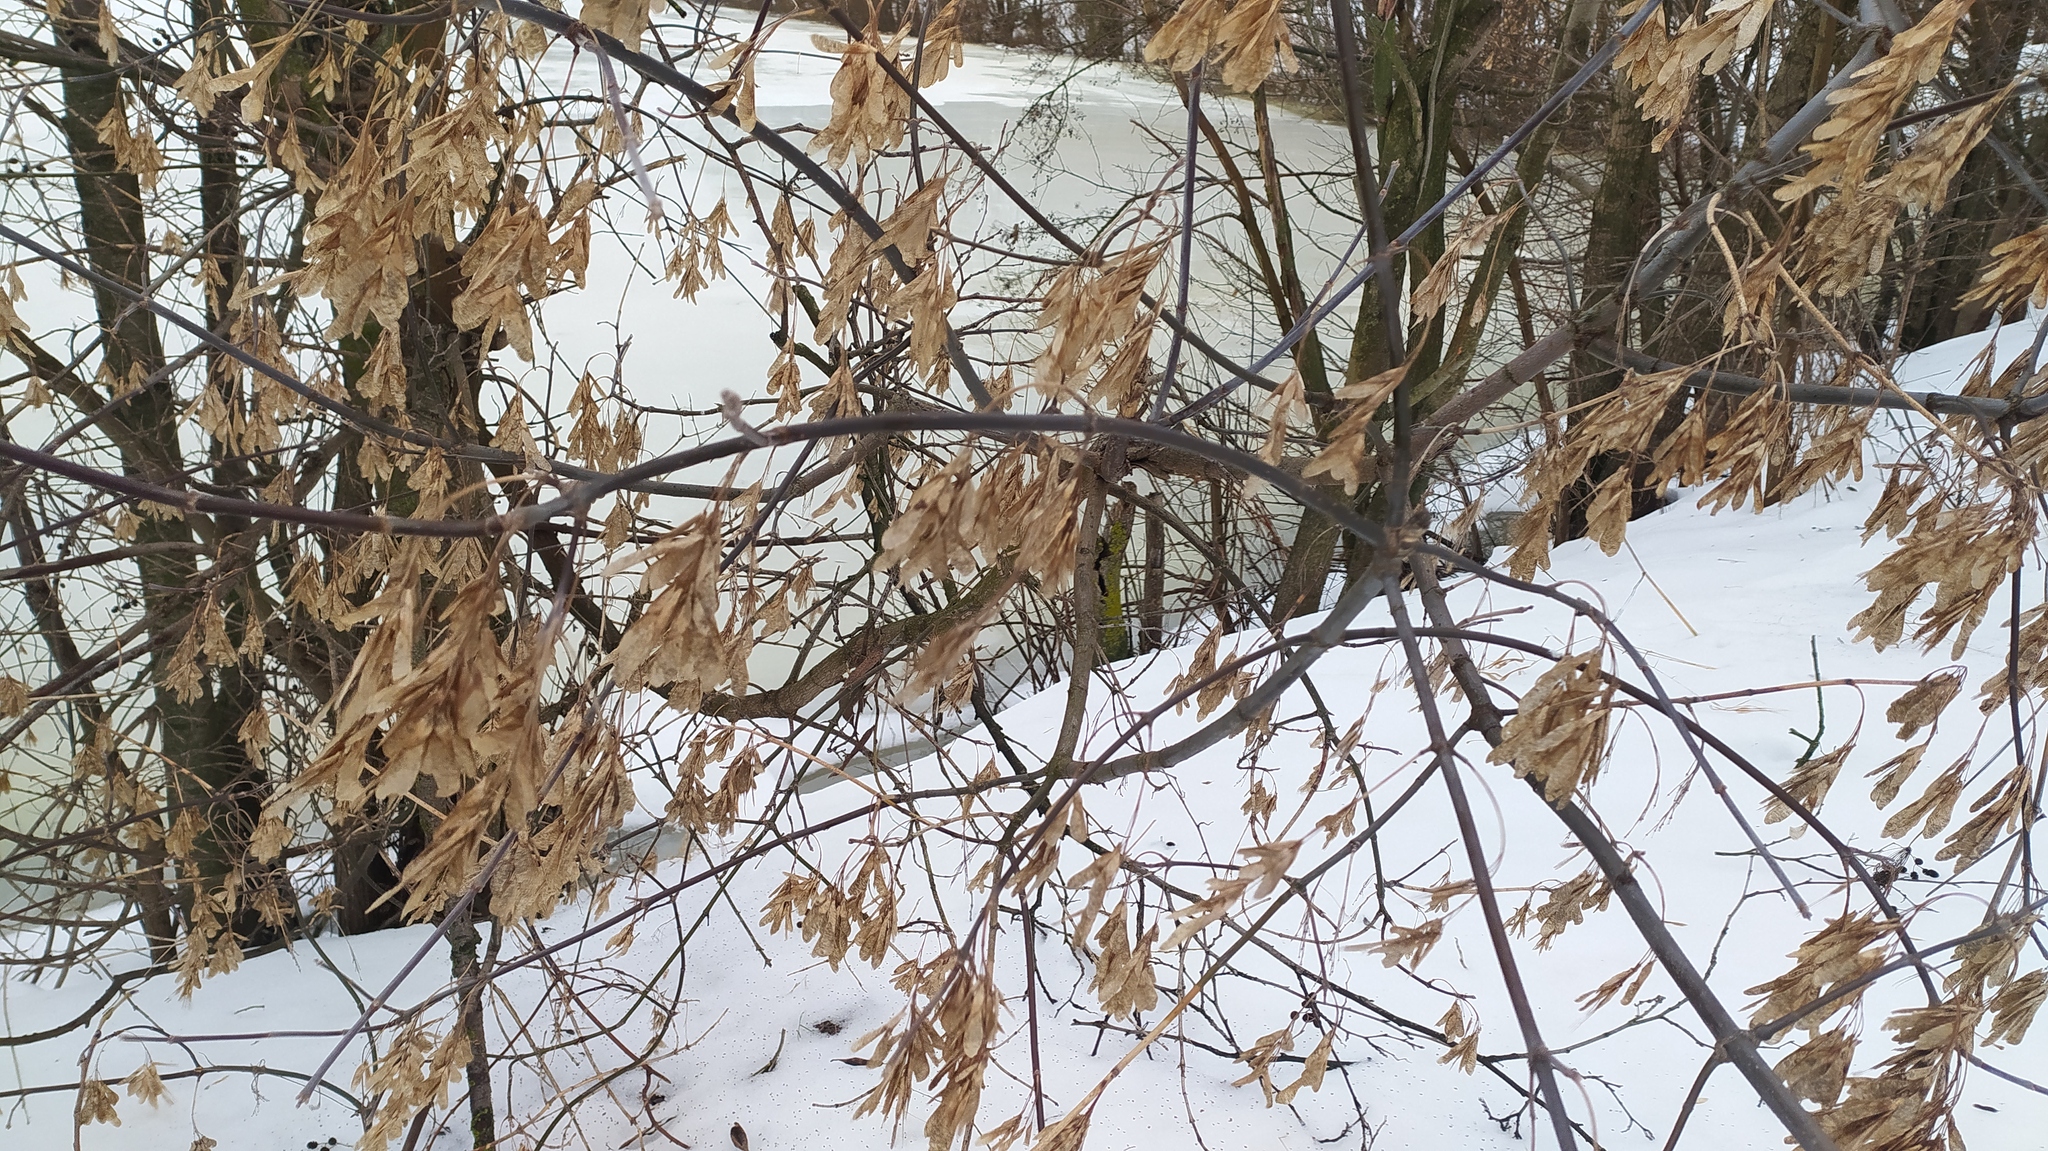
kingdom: Plantae
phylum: Tracheophyta
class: Magnoliopsida
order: Sapindales
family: Sapindaceae
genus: Acer
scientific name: Acer negundo
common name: Ashleaf maple
